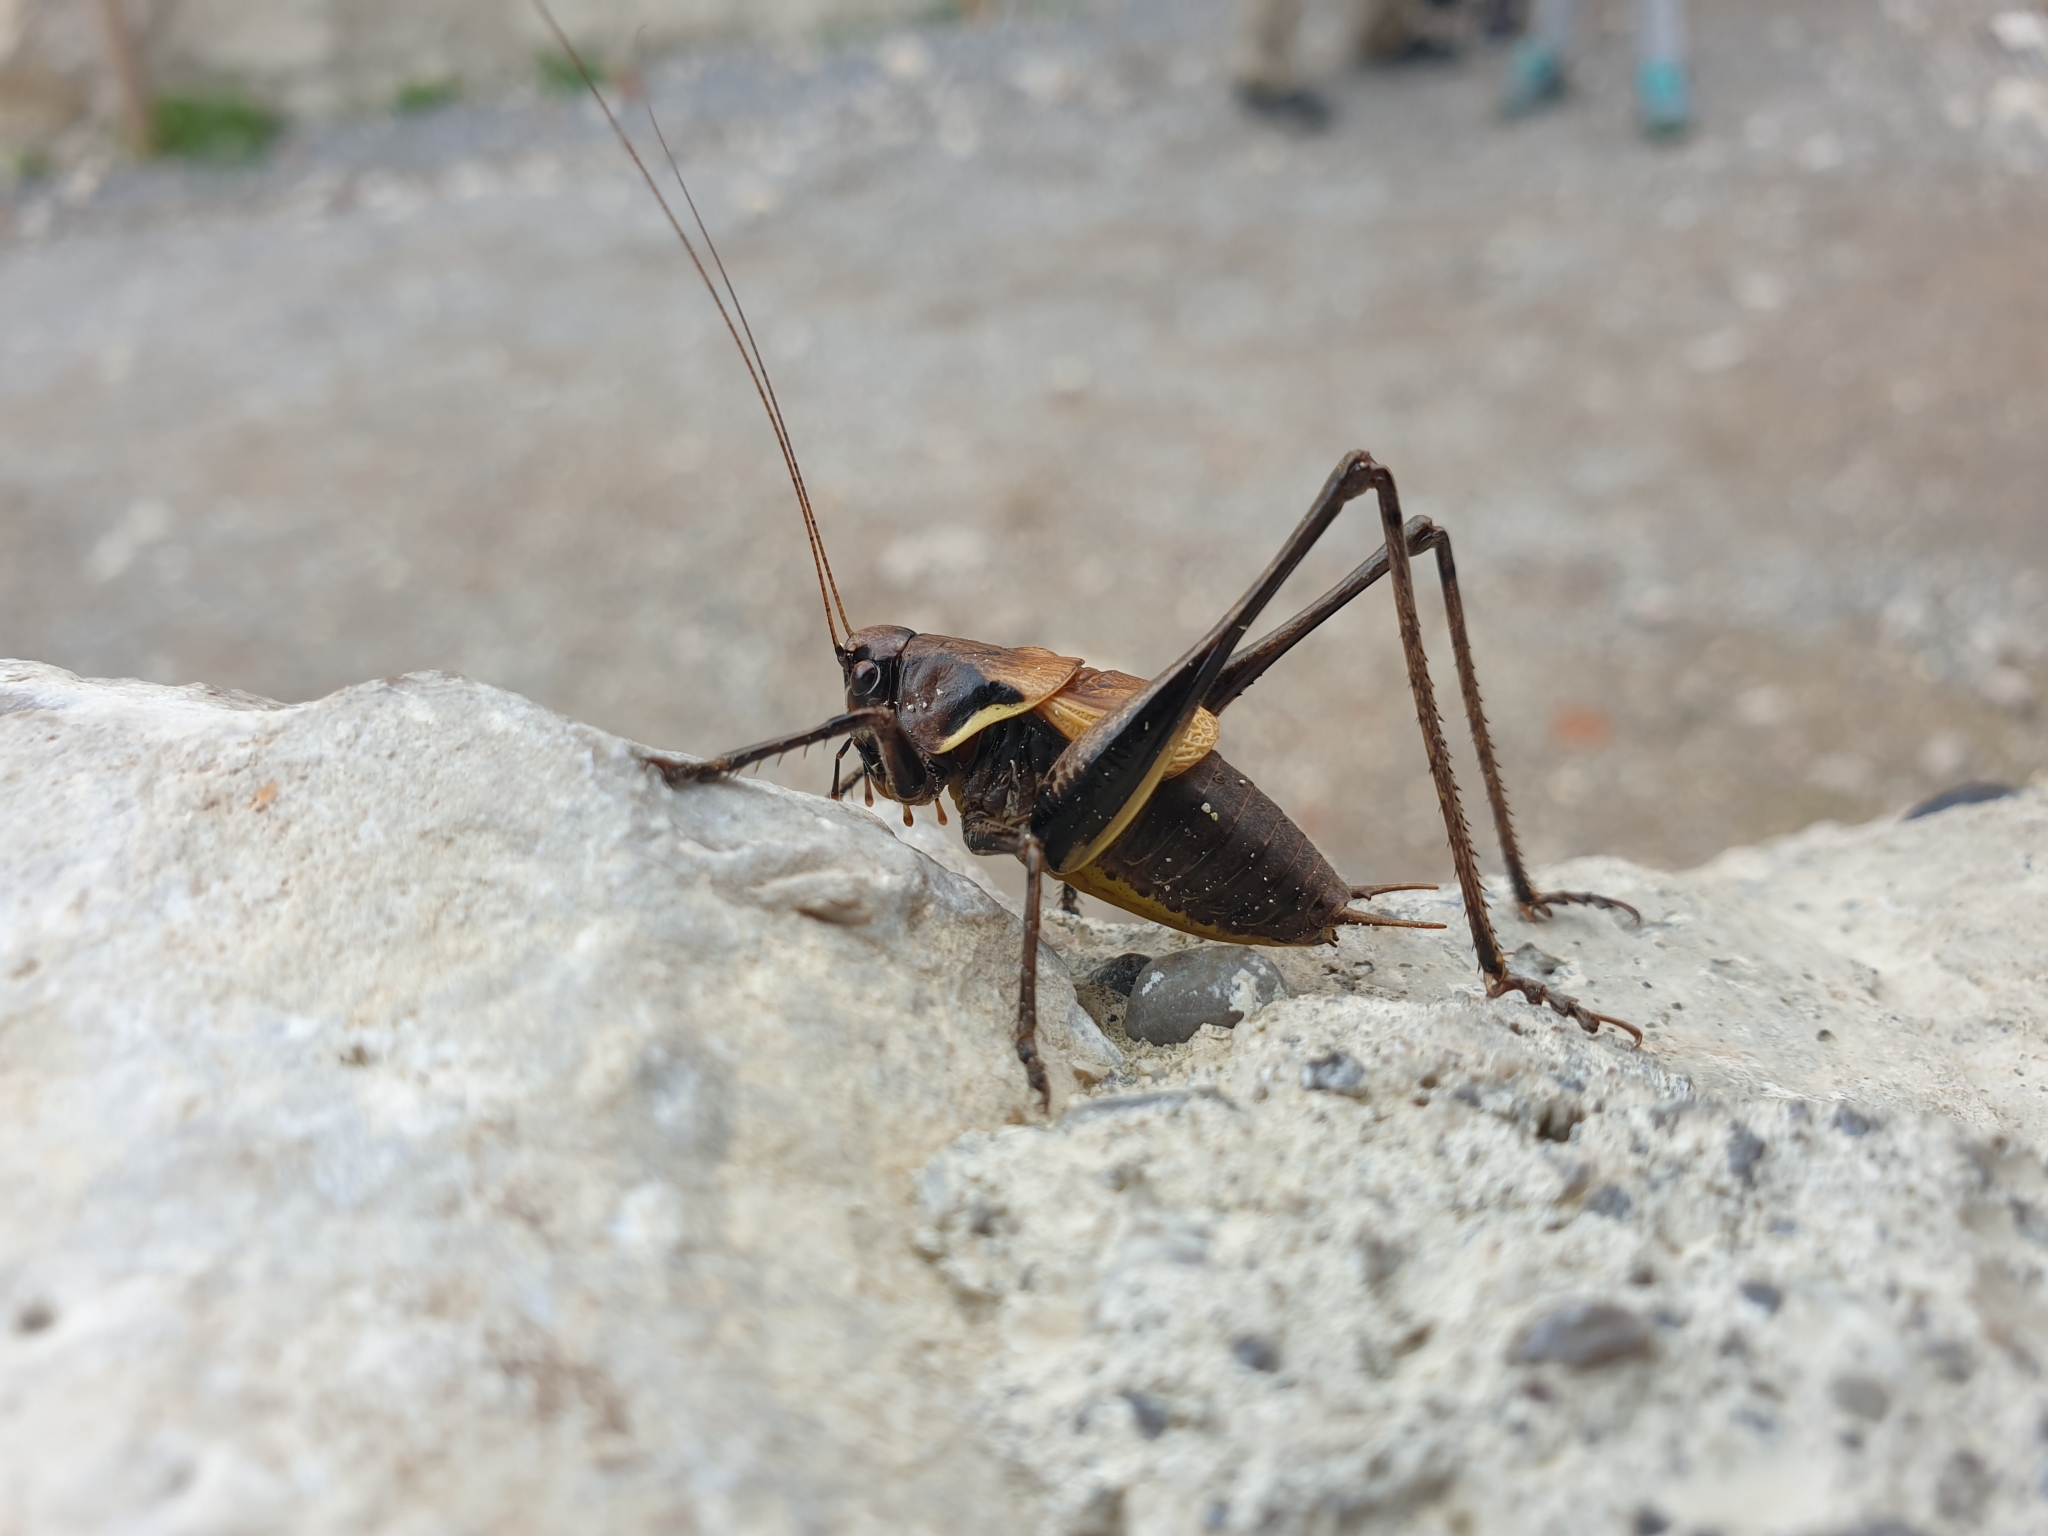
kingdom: Animalia
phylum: Arthropoda
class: Insecta
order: Orthoptera
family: Tettigoniidae
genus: Pholidoptera
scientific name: Pholidoptera aptera
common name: Alpine dark bush-cricket
